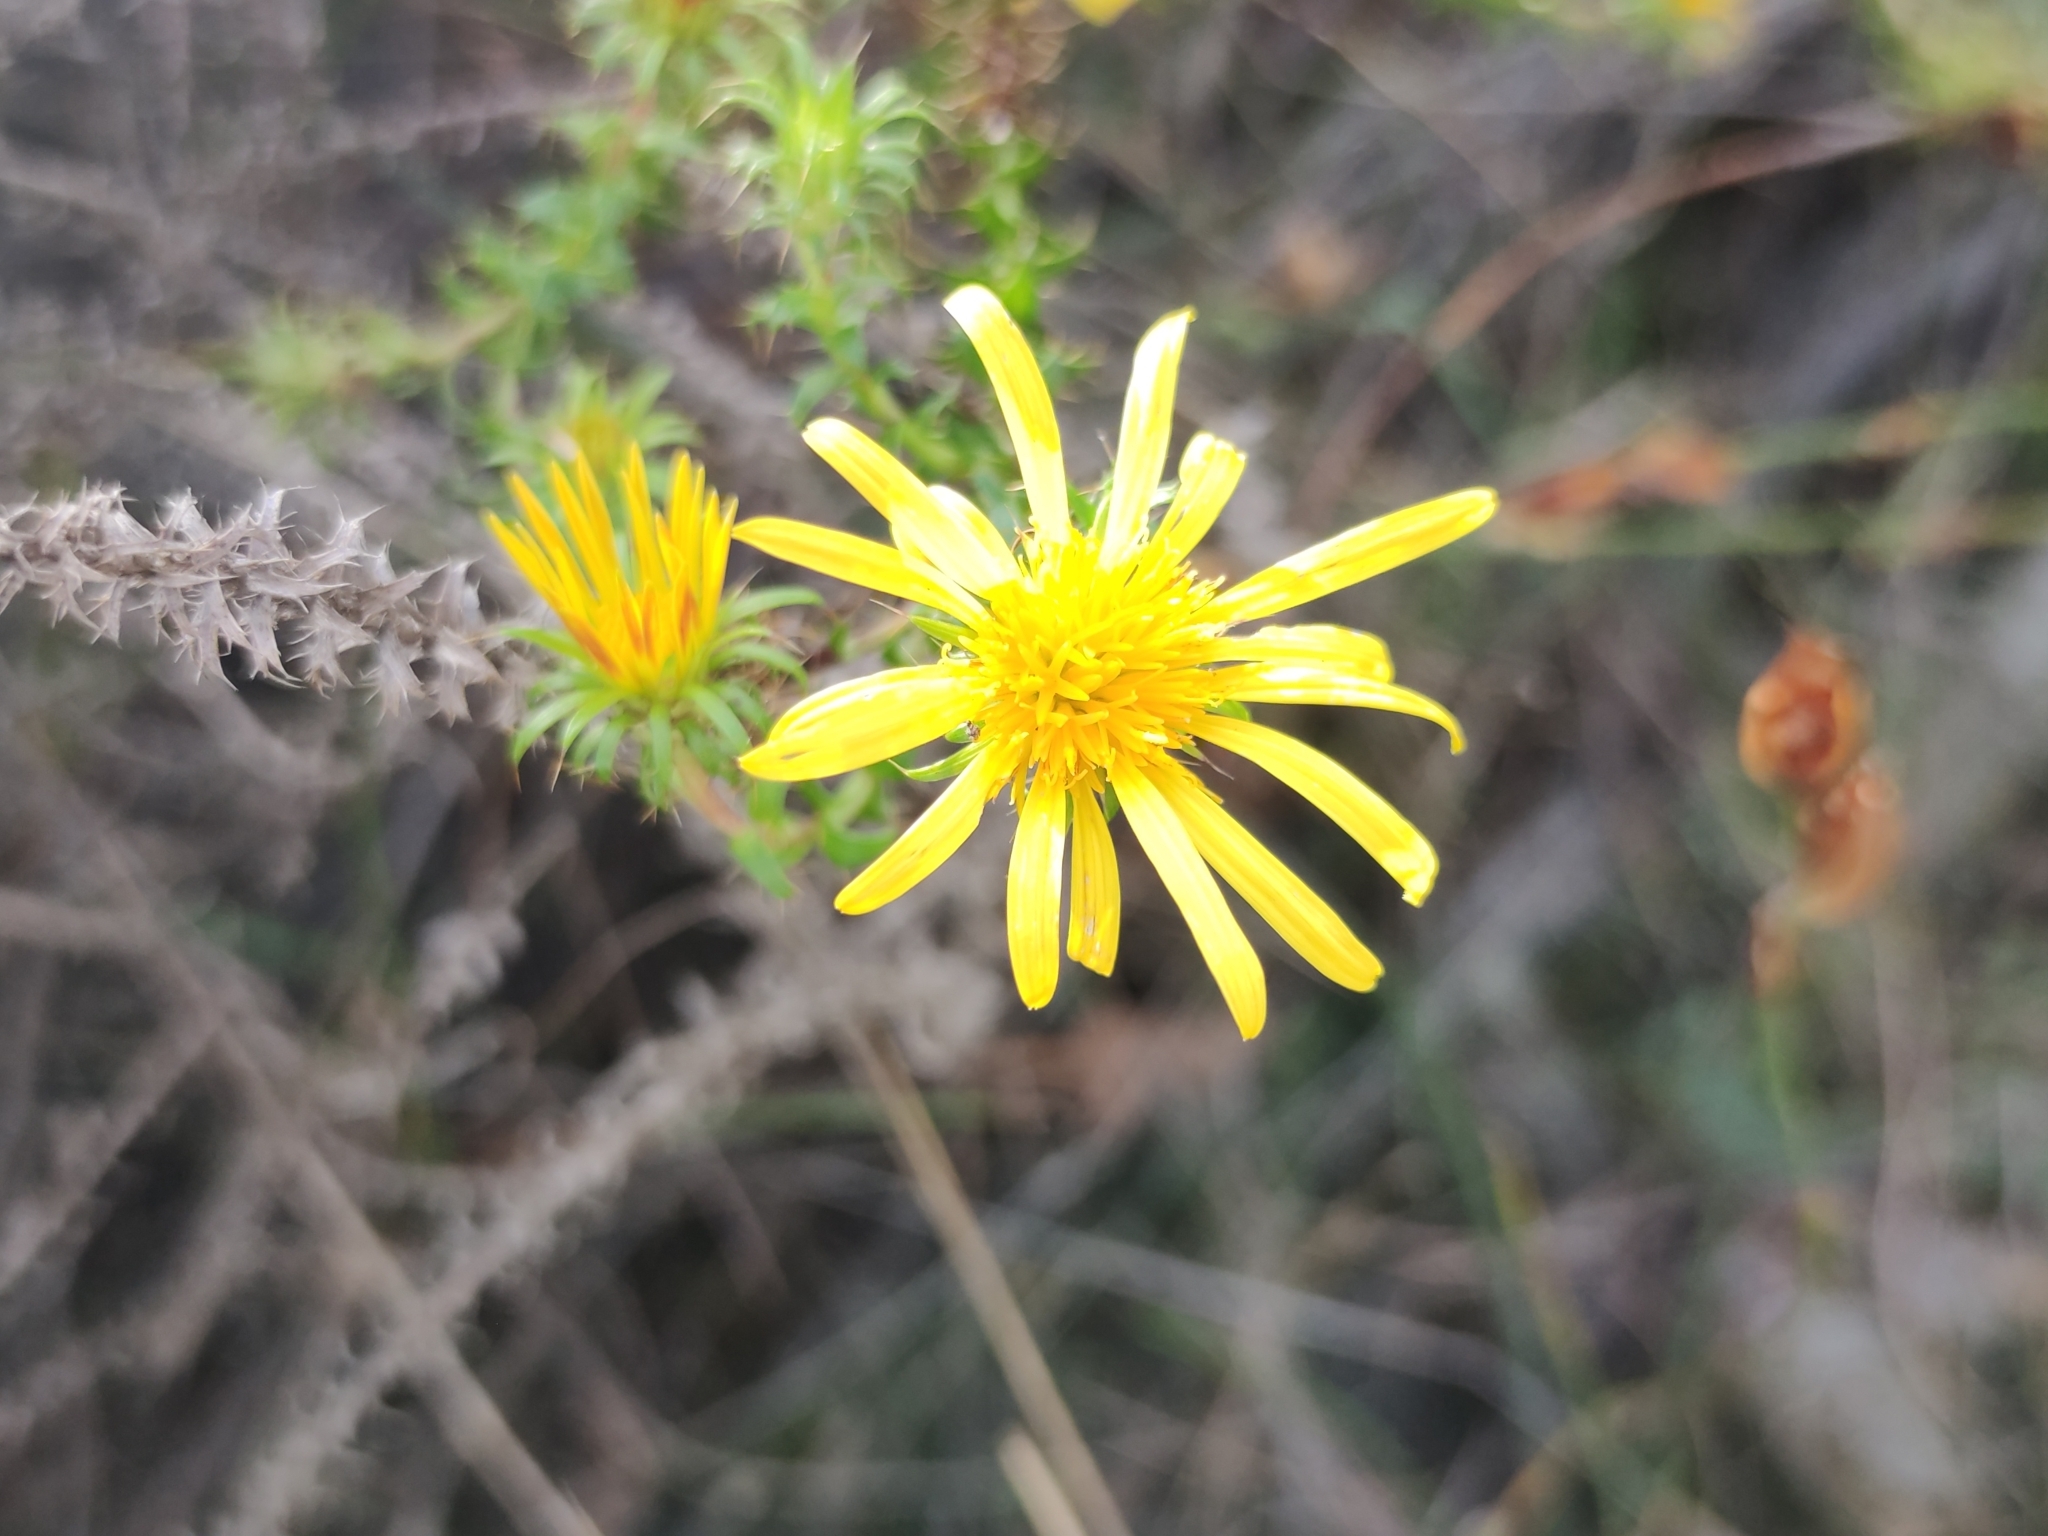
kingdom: Plantae
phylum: Tracheophyta
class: Magnoliopsida
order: Asterales
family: Asteraceae
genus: Cullumia
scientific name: Cullumia setosa
